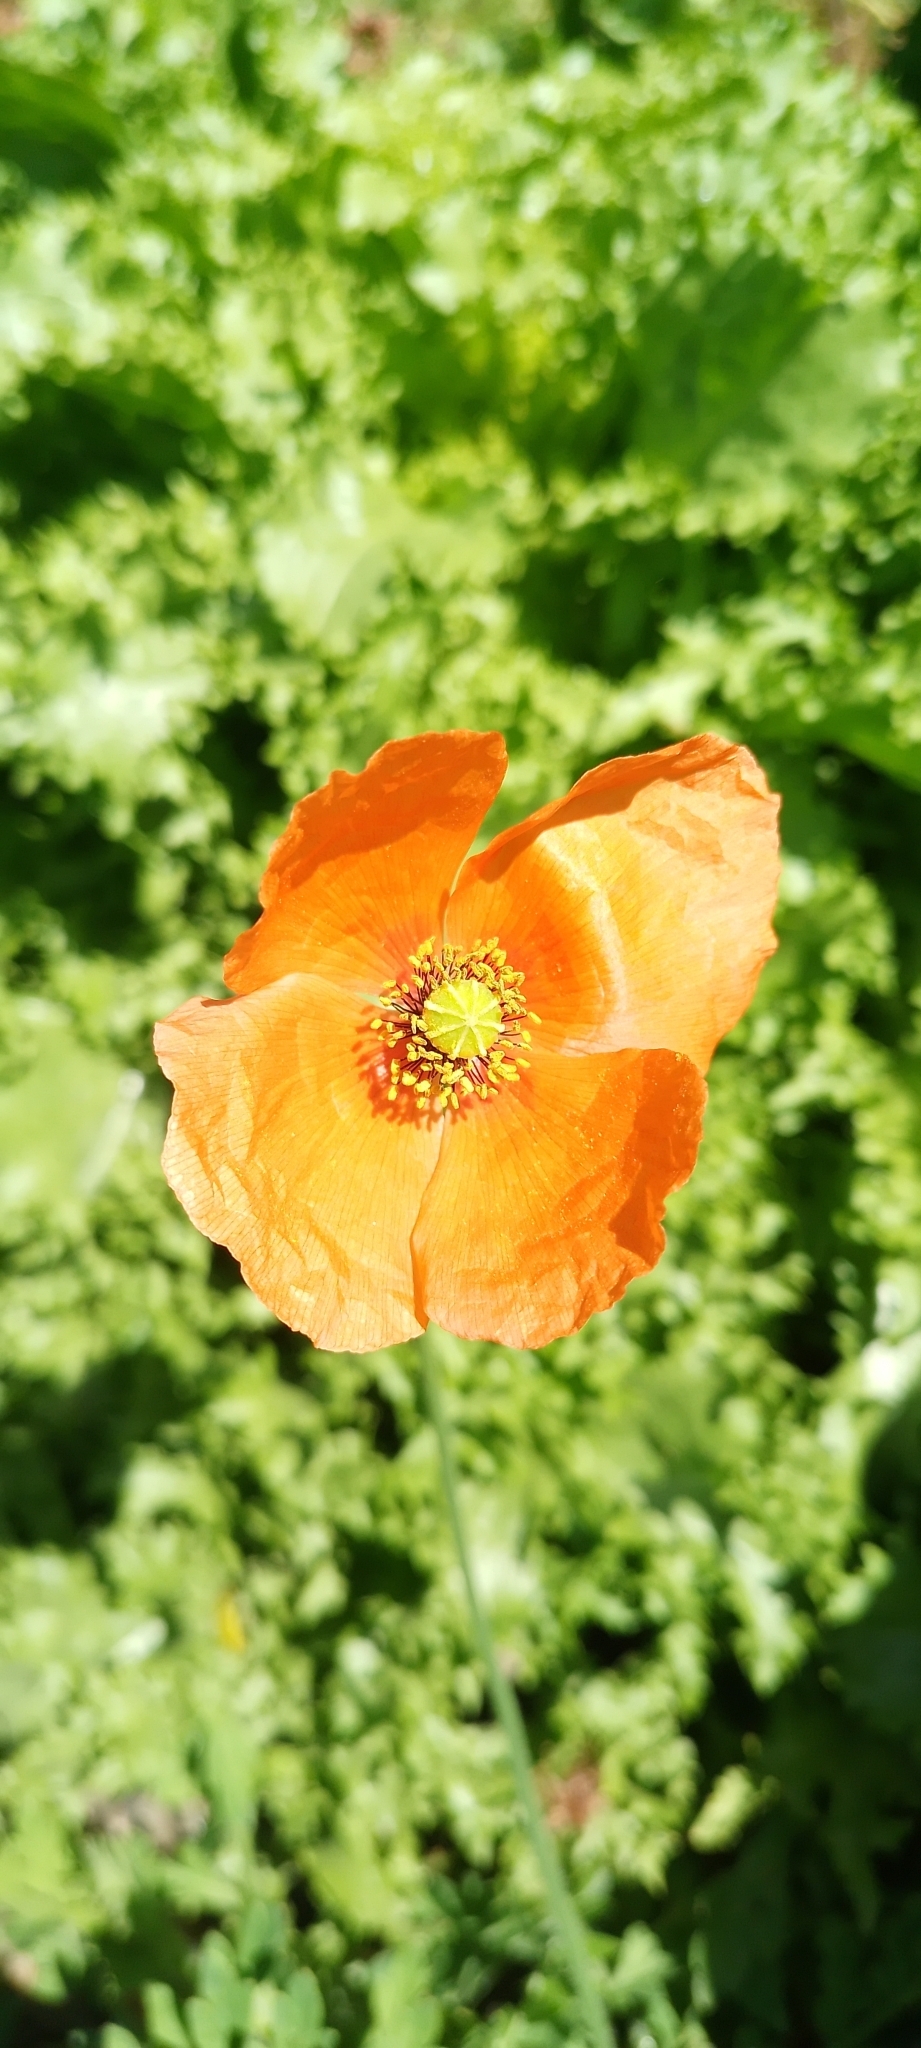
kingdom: Plantae
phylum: Tracheophyta
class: Magnoliopsida
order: Ranunculales
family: Papaveraceae
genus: Papaver
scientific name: Papaver dubium
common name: Long-headed poppy
